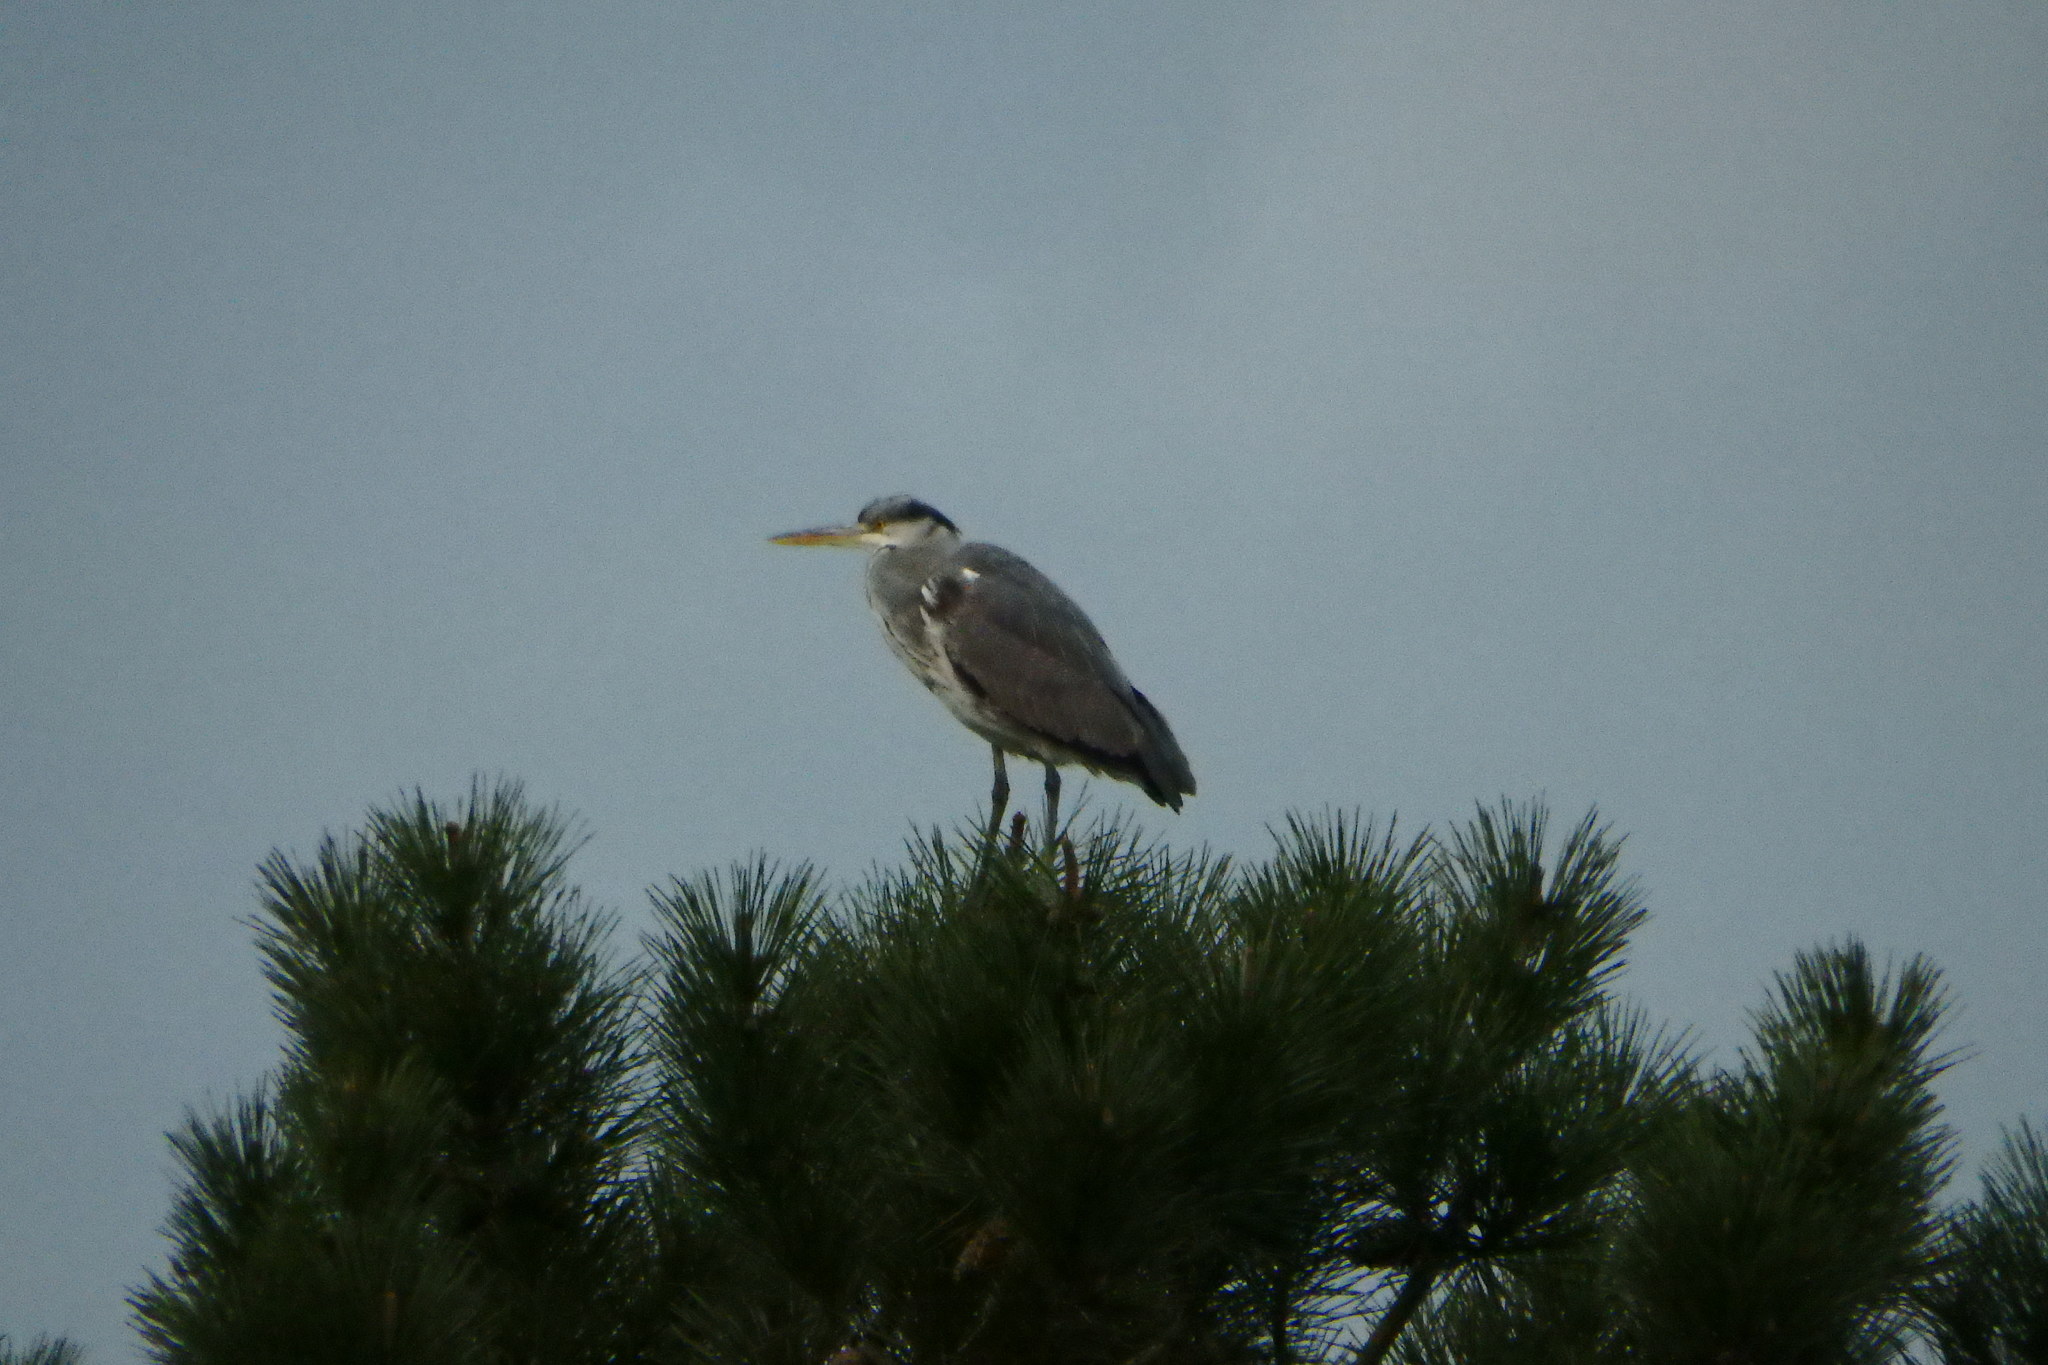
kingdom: Animalia
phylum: Chordata
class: Aves
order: Pelecaniformes
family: Ardeidae
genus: Ardea
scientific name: Ardea cinerea
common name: Grey heron
